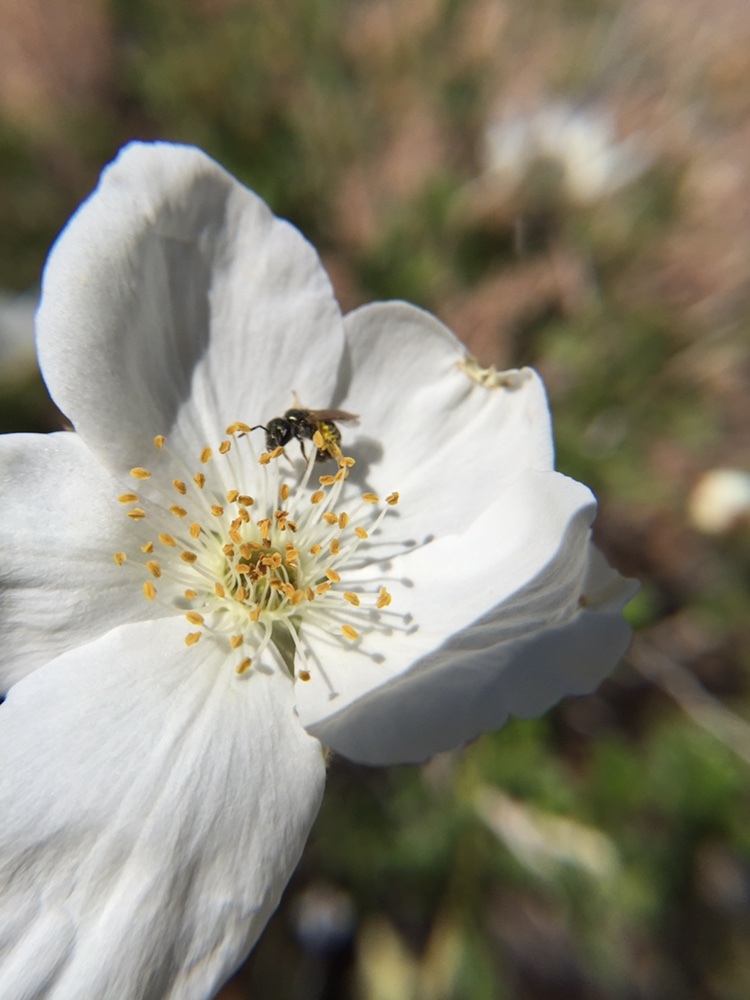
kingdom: Animalia
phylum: Arthropoda
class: Insecta
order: Hymenoptera
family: Halictidae
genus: Dialictus
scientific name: Dialictus
